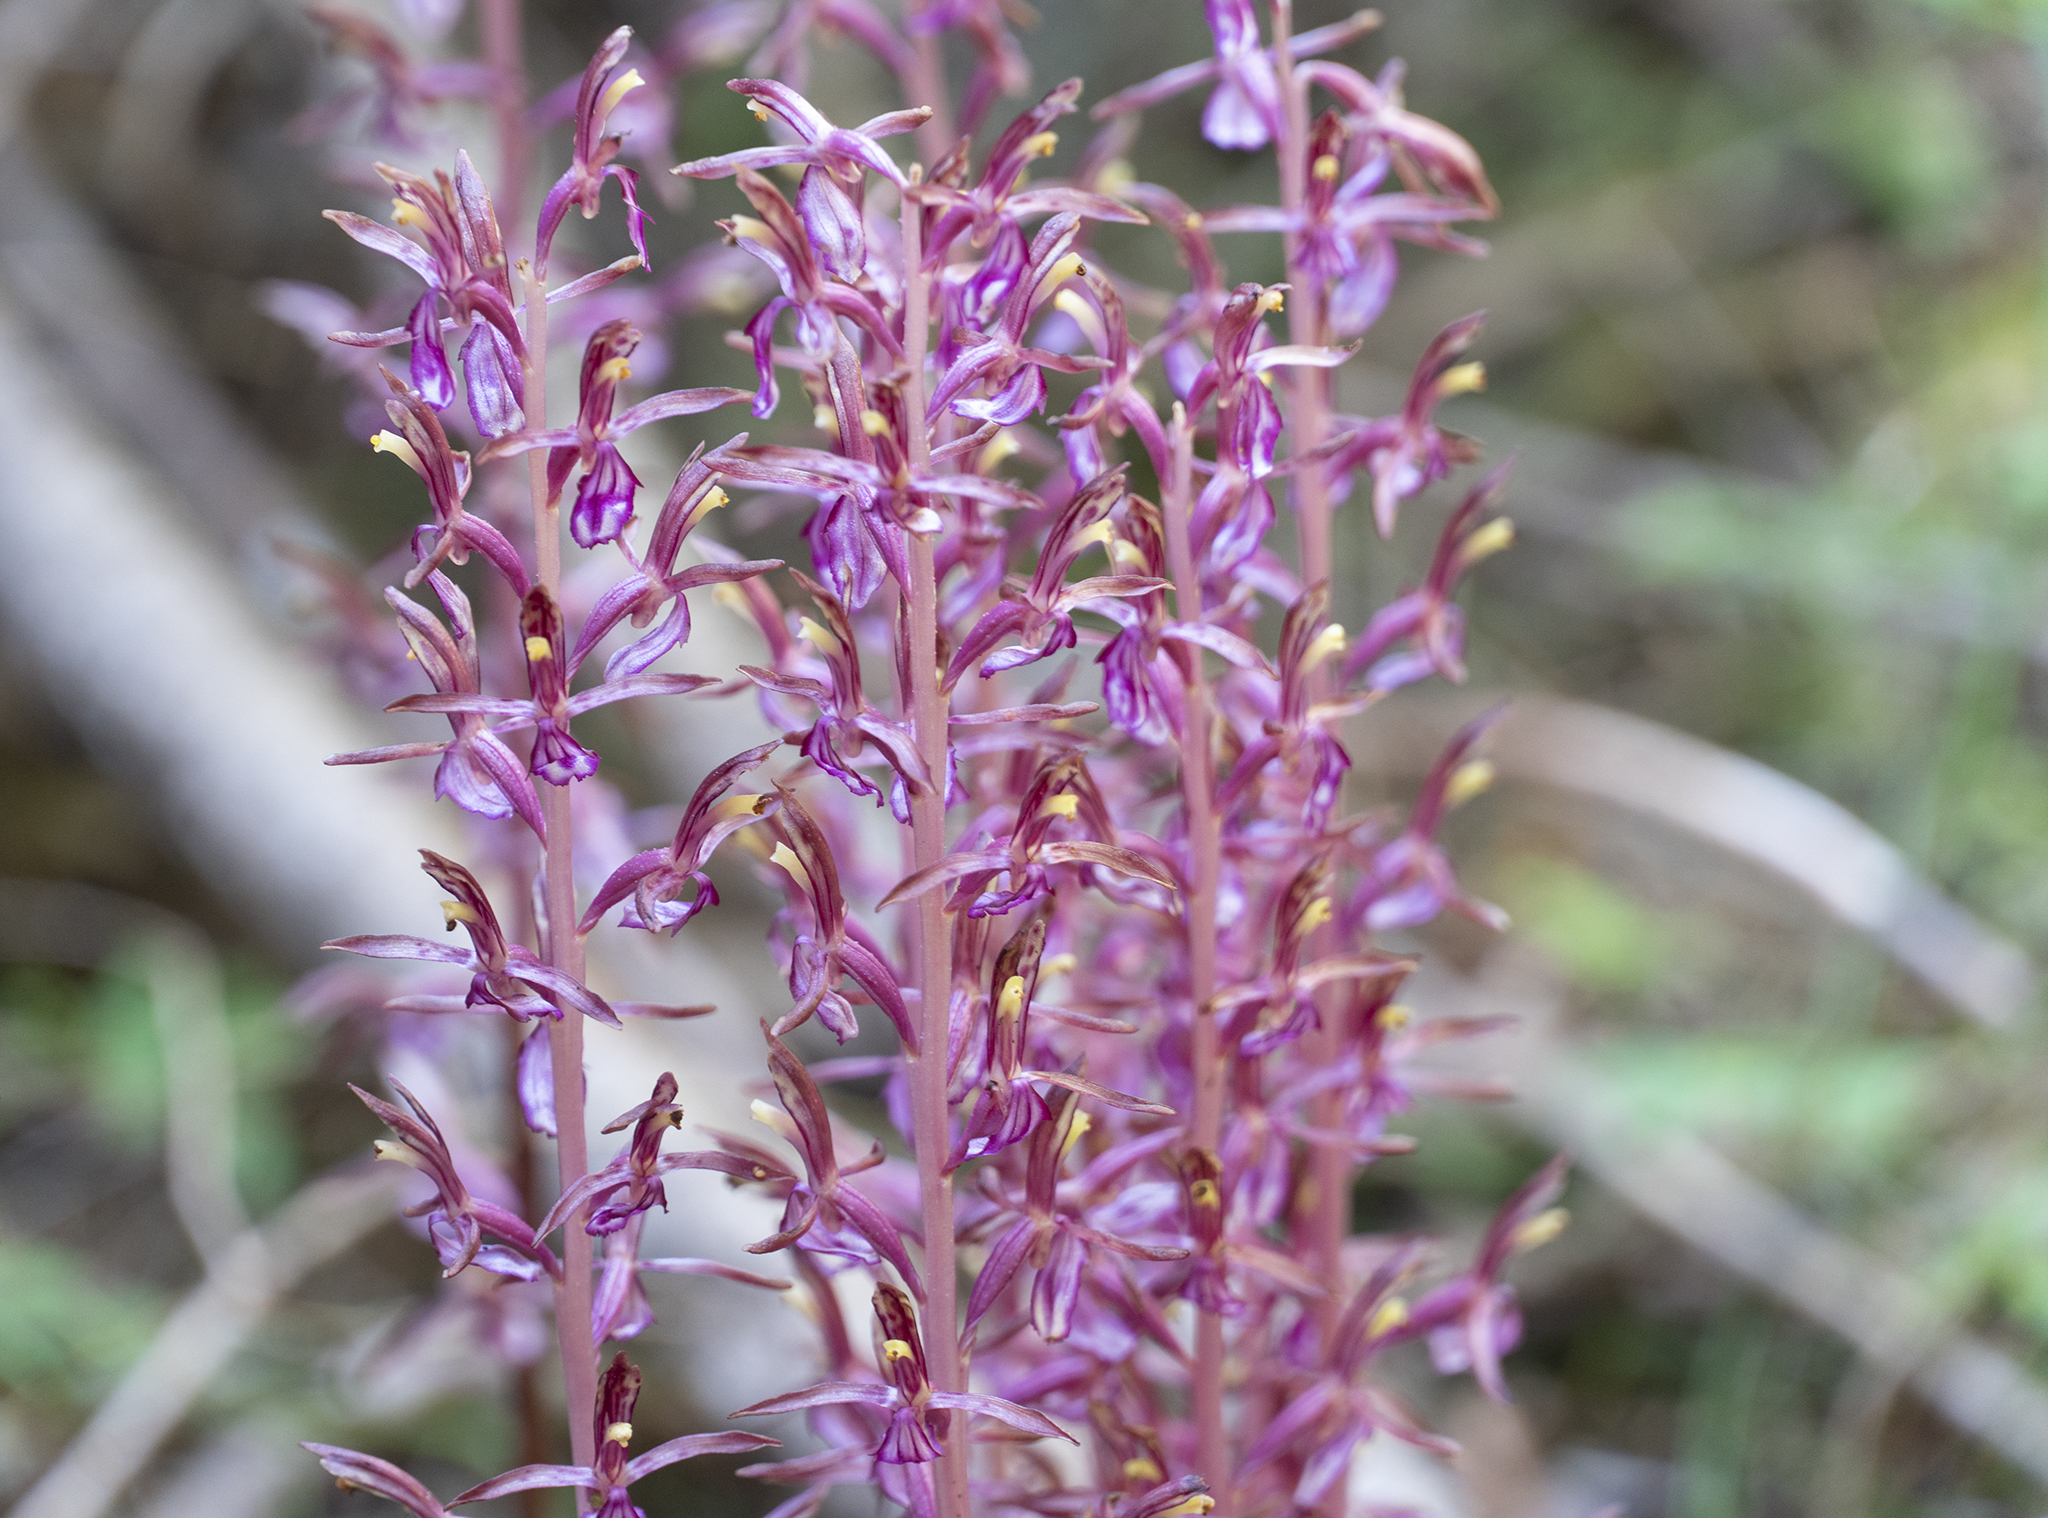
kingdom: Plantae
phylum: Tracheophyta
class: Liliopsida
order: Asparagales
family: Orchidaceae
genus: Corallorhiza
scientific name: Corallorhiza mertensiana
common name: Pacific coralroot
